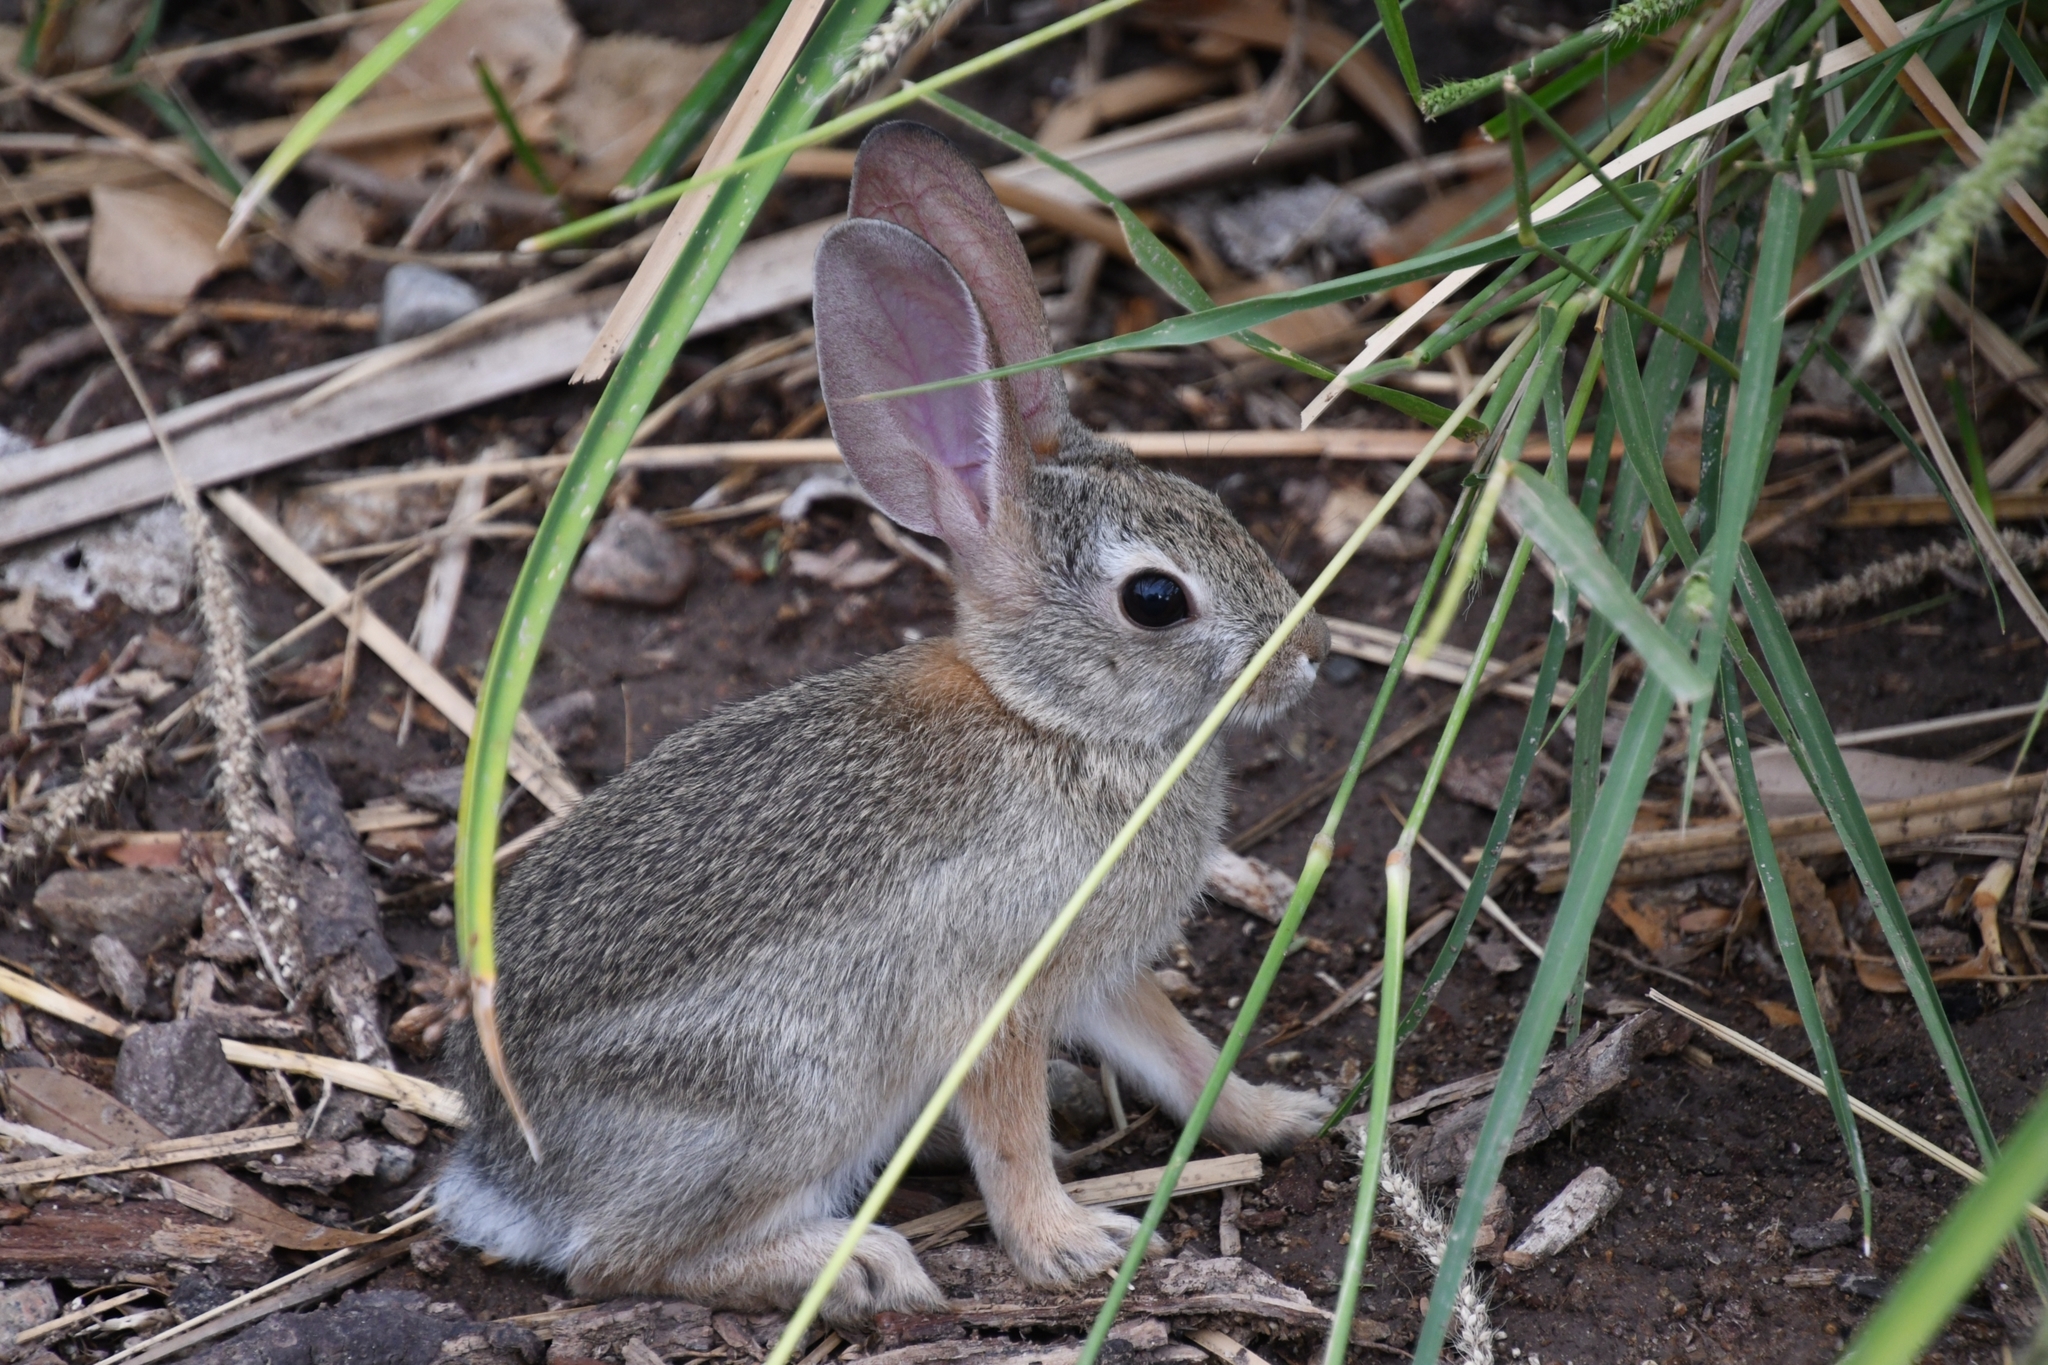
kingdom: Animalia
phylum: Chordata
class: Mammalia
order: Lagomorpha
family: Leporidae
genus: Sylvilagus
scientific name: Sylvilagus audubonii
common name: Desert cottontail
